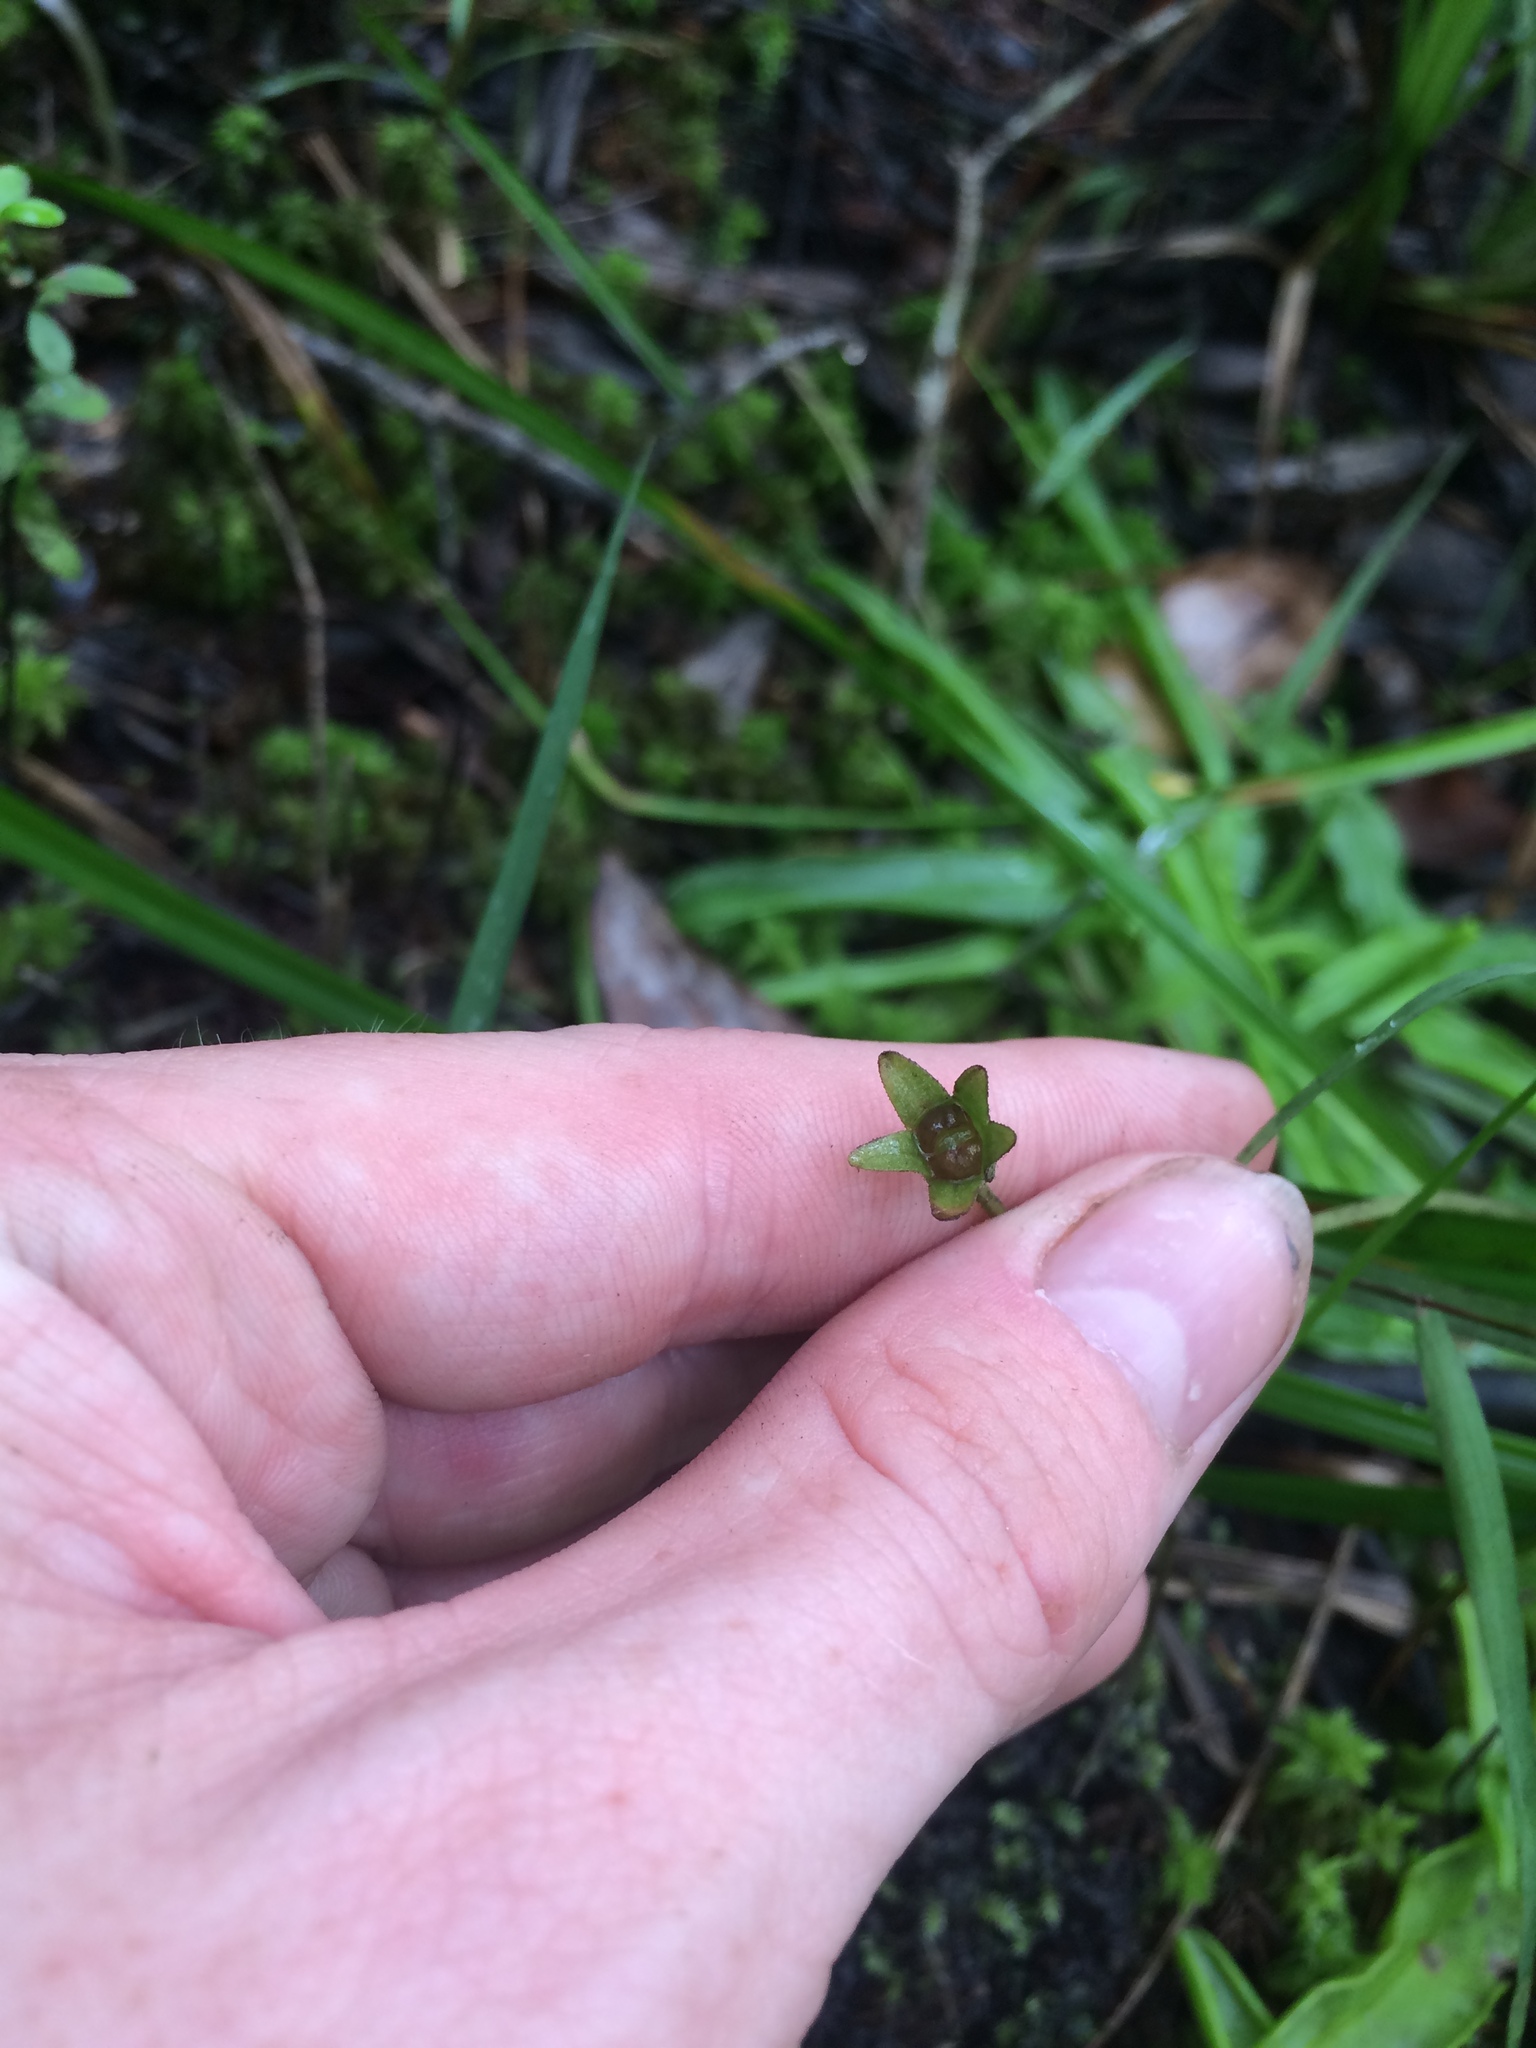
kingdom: Plantae
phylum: Tracheophyta
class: Magnoliopsida
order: Lamiales
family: Lentibulariaceae
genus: Pinguicula
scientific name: Pinguicula primuliflora
